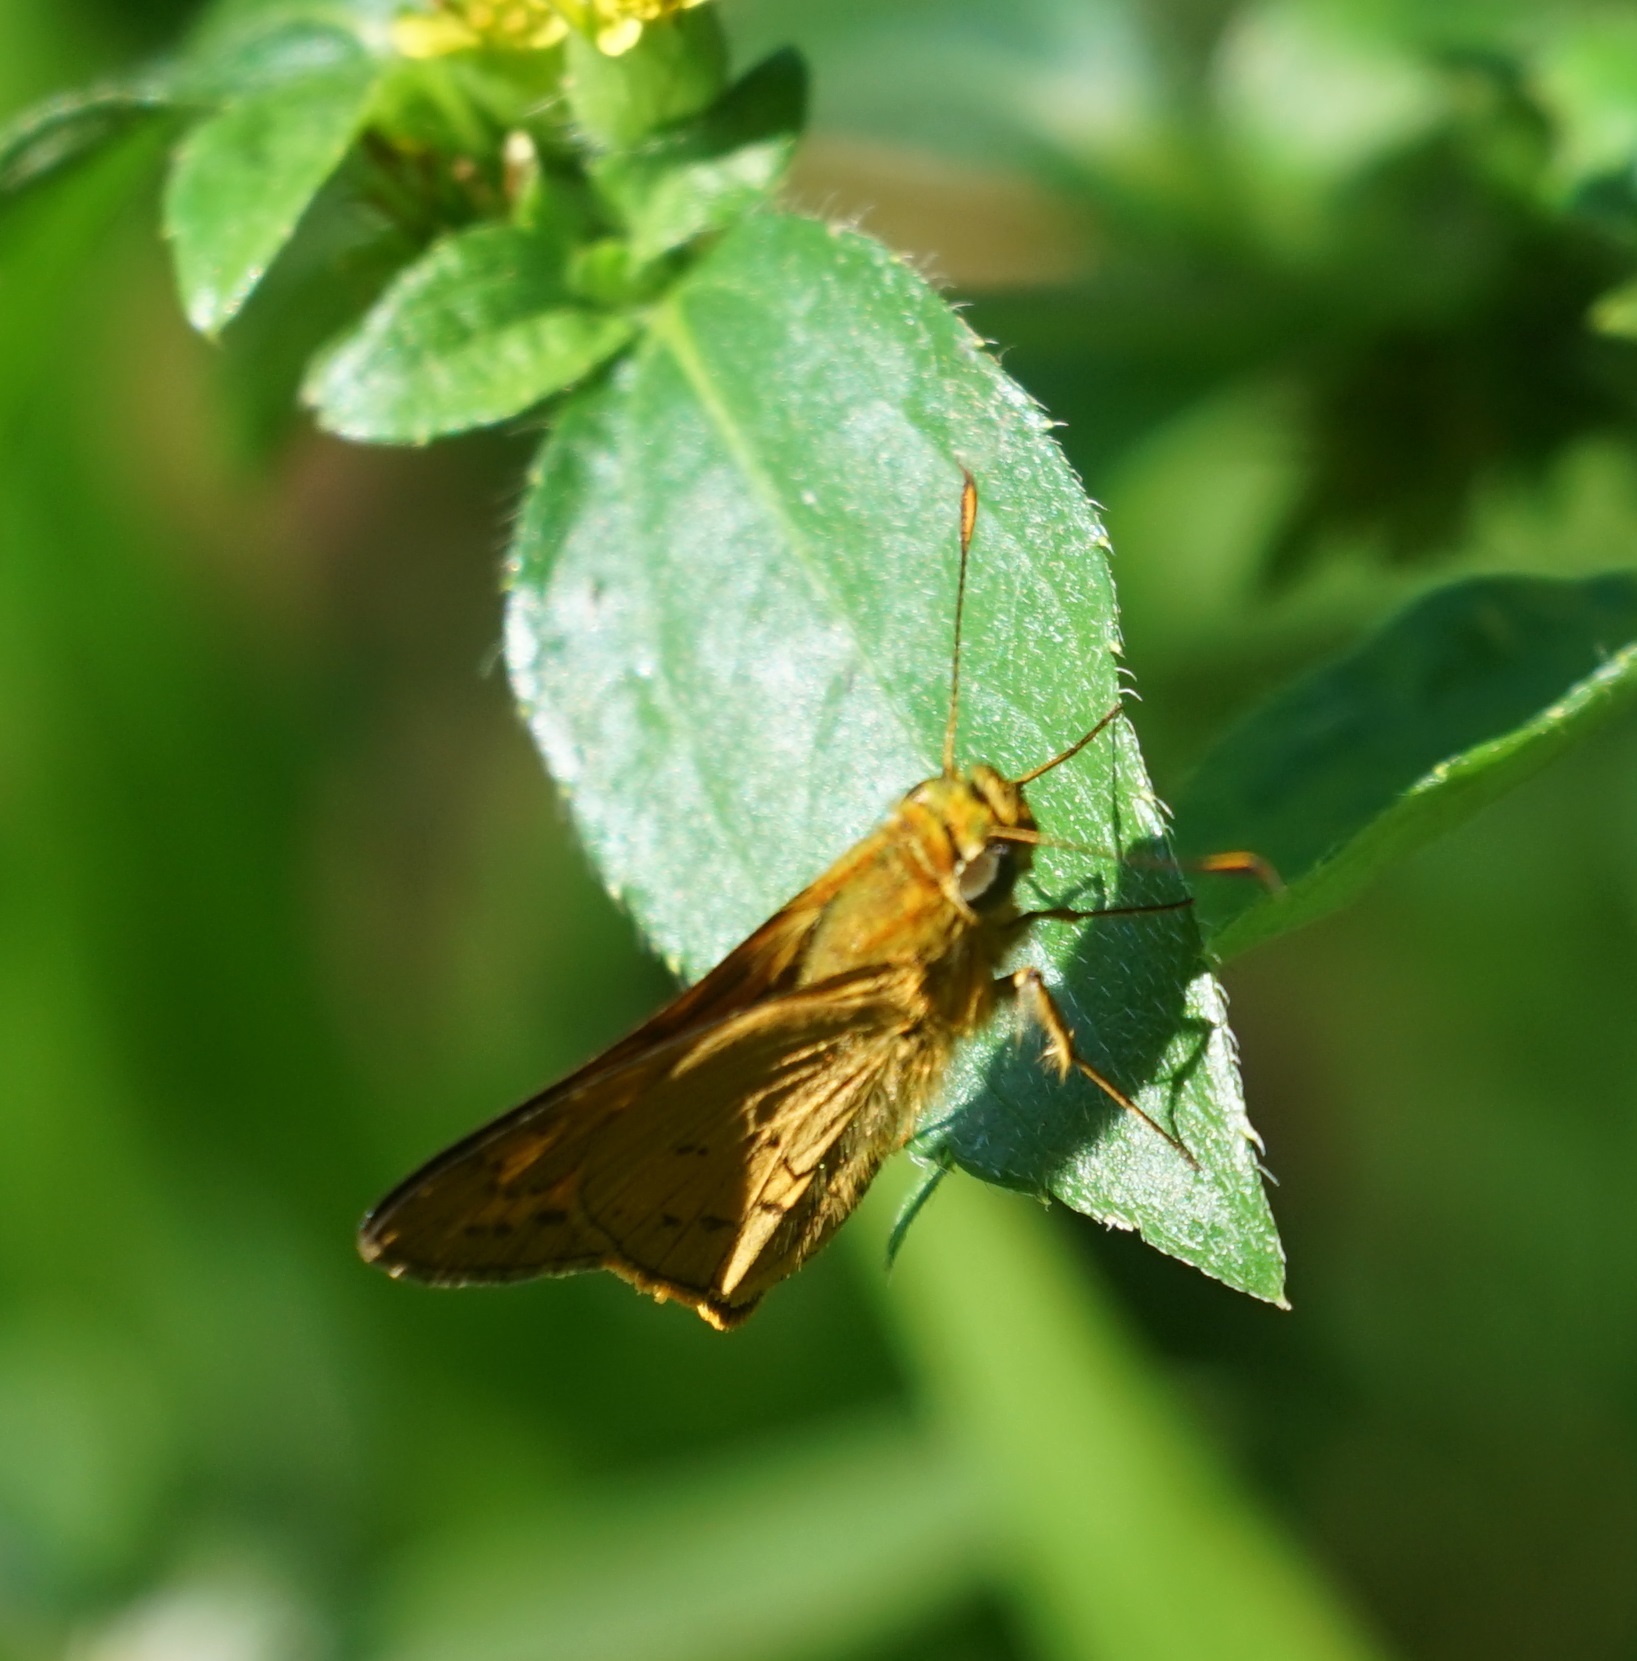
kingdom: Animalia
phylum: Arthropoda
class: Insecta
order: Lepidoptera
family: Hesperiidae
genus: Telicota
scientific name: Telicota paceka
